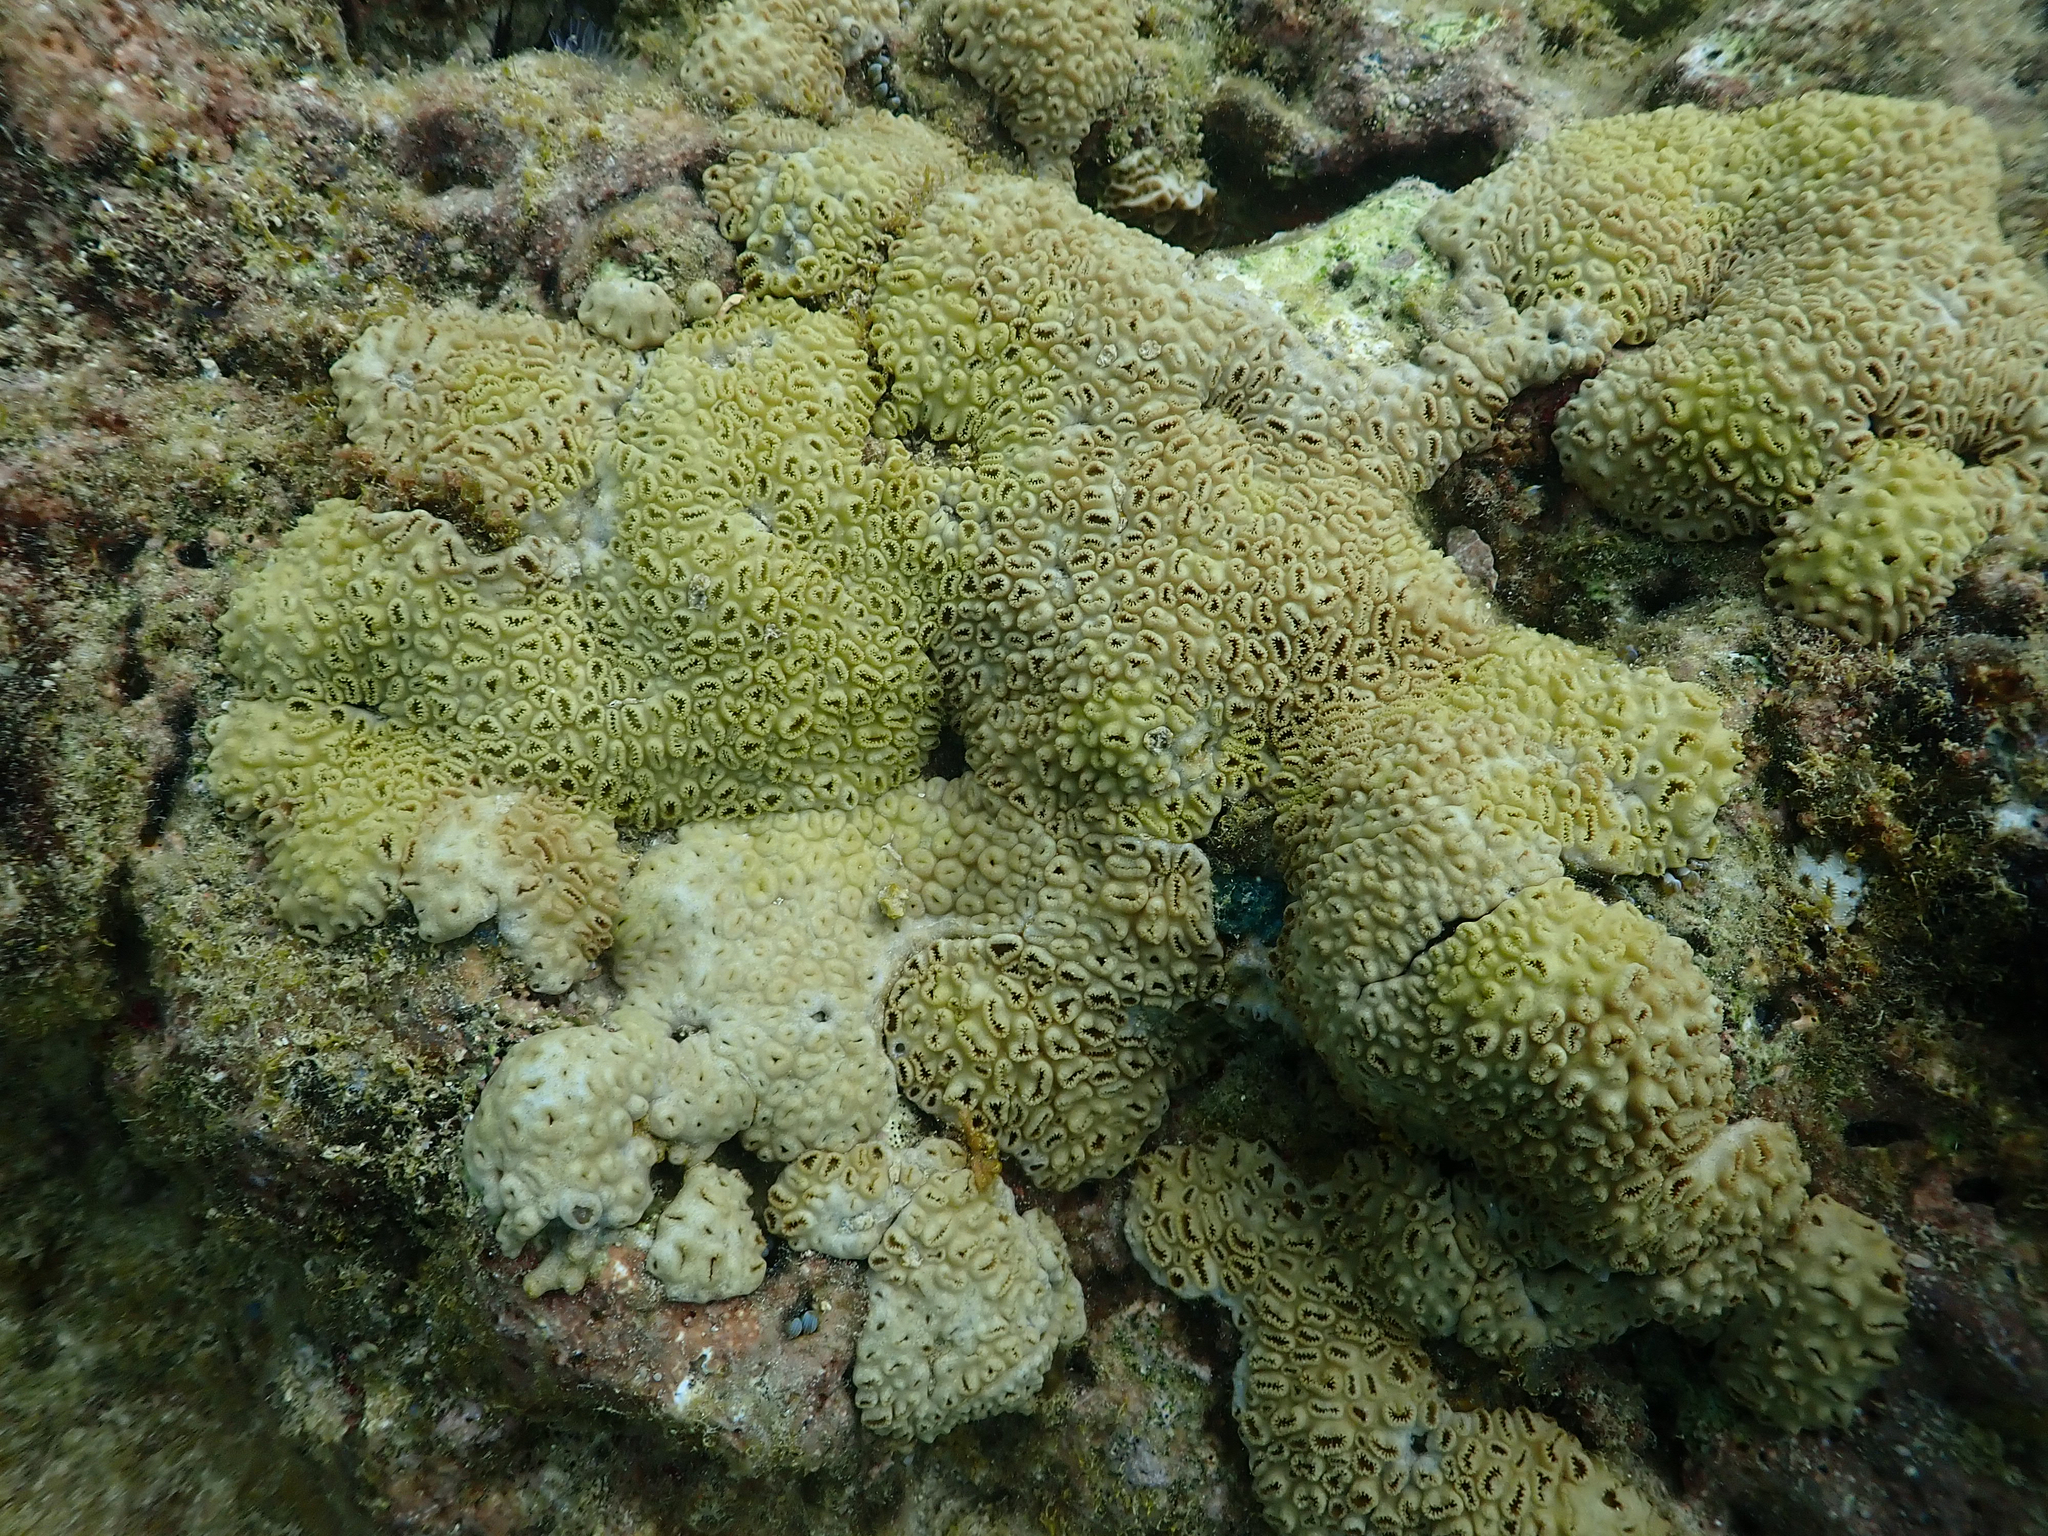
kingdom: Animalia
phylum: Cnidaria
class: Anthozoa
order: Zoantharia
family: Sphenopidae
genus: Palythoa
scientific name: Palythoa caribaeorum
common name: Encrusting colonial anemone
